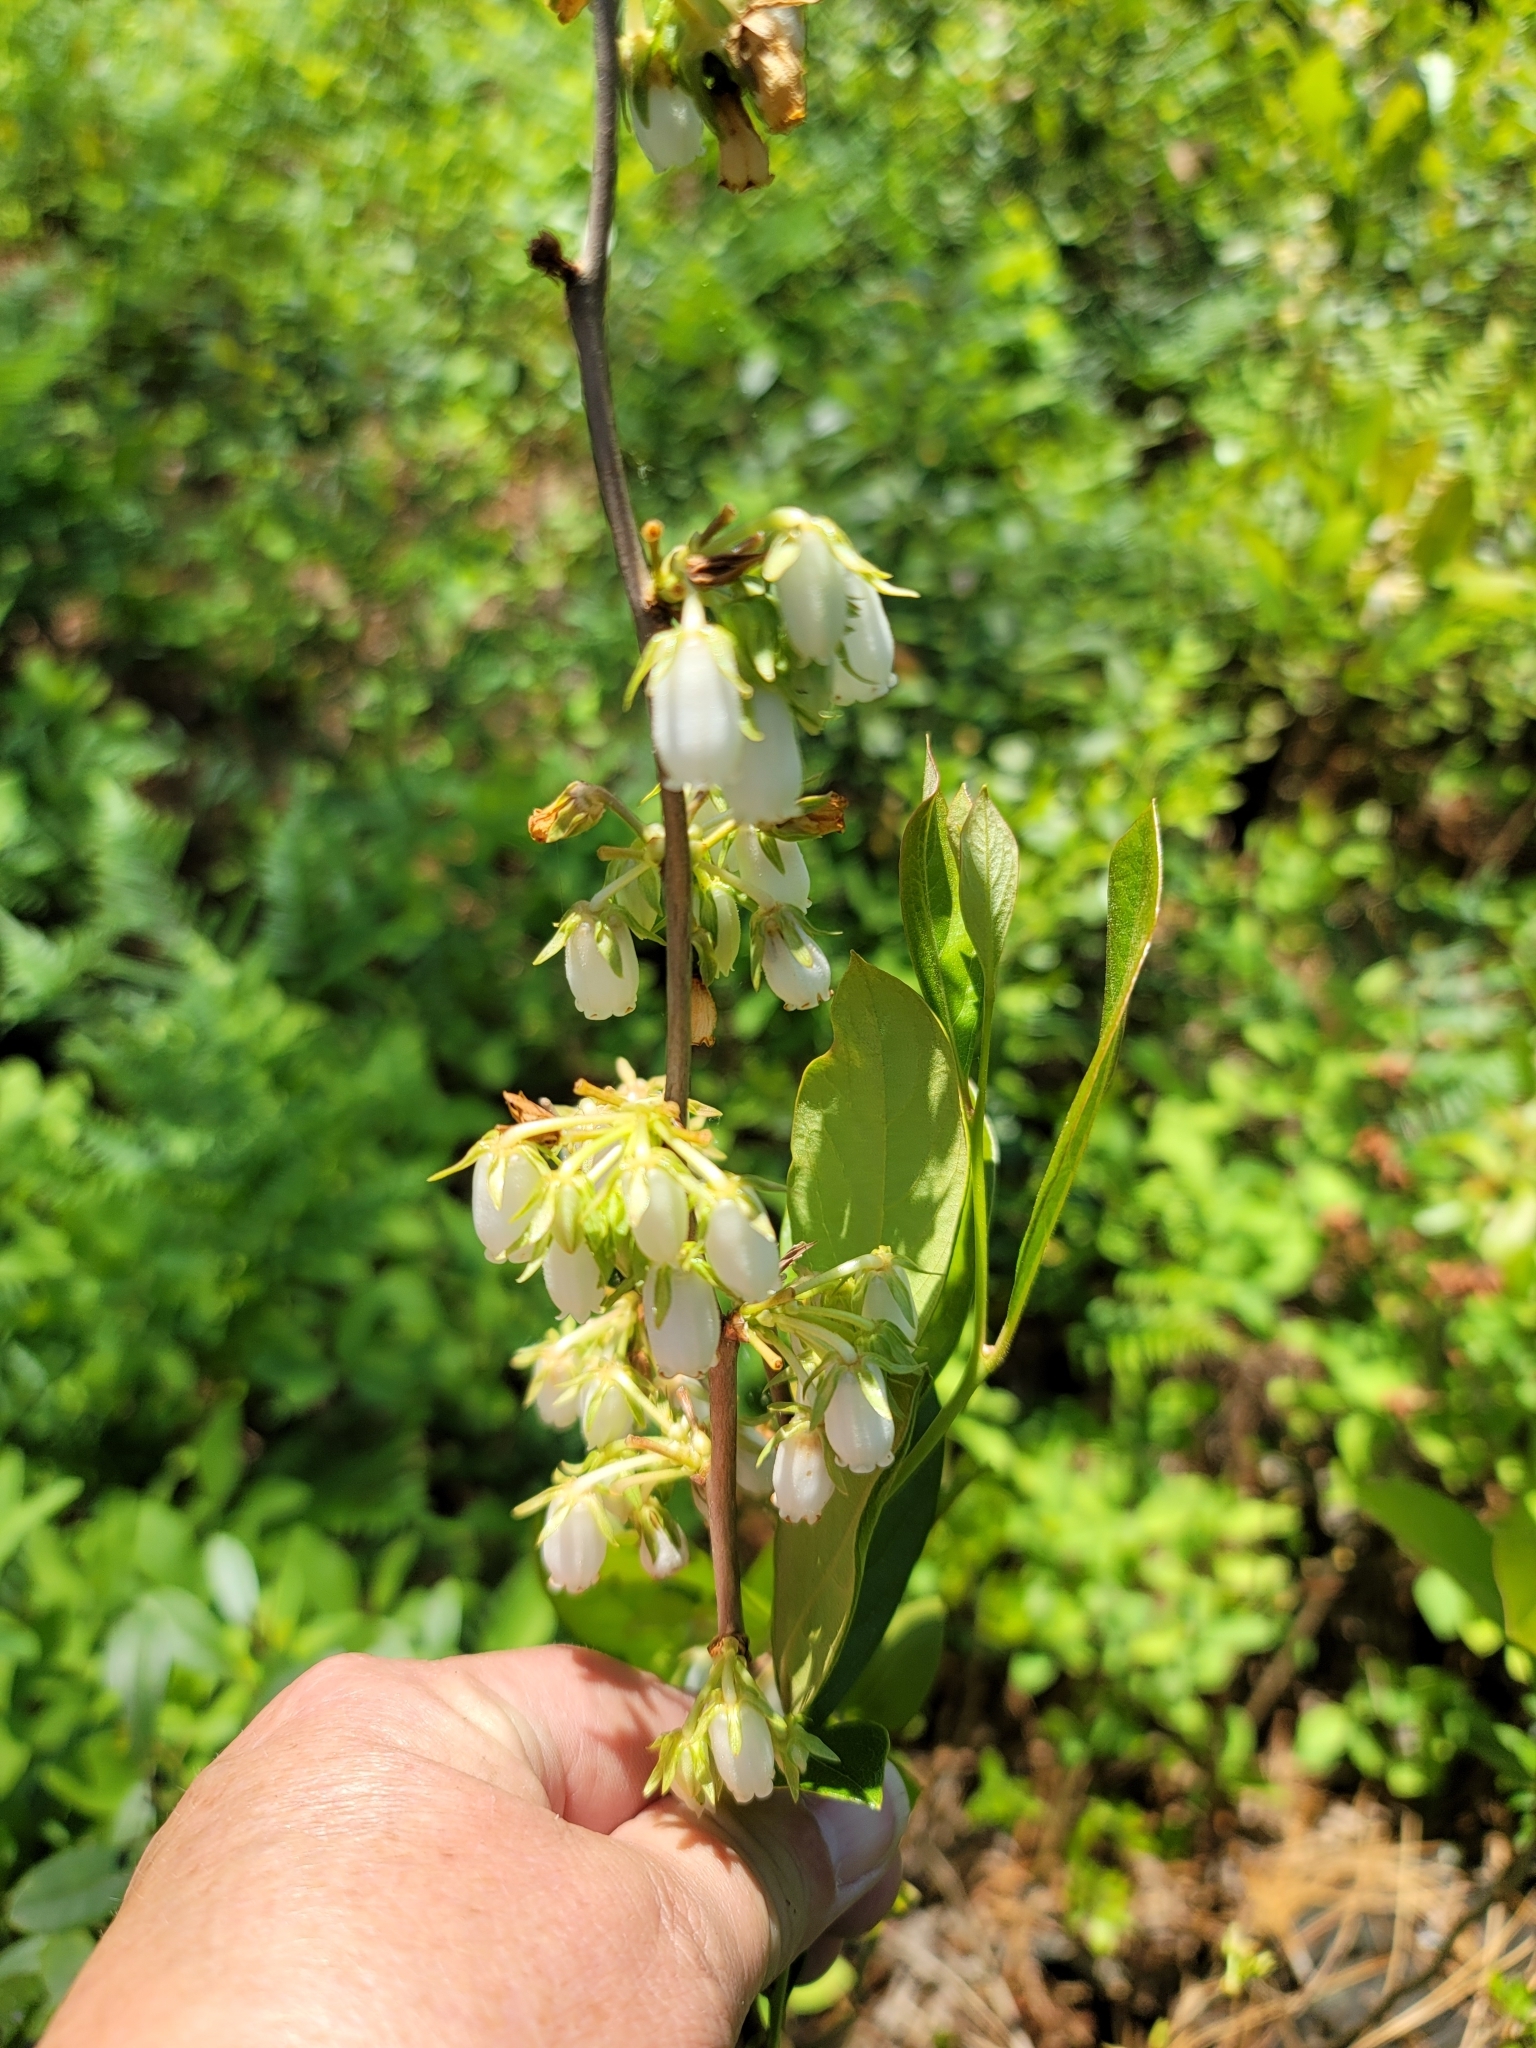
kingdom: Plantae
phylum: Tracheophyta
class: Magnoliopsida
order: Ericales
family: Ericaceae
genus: Lyonia
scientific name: Lyonia mariana
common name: Staggerbush
